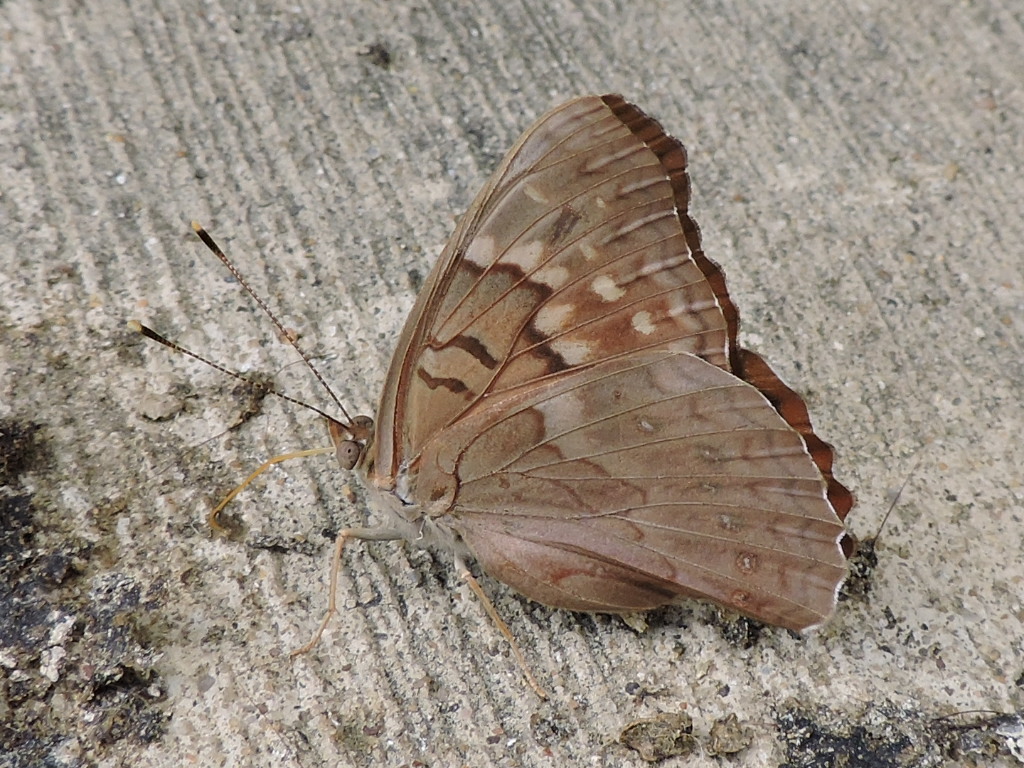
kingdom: Animalia
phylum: Arthropoda
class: Insecta
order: Lepidoptera
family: Nymphalidae
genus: Asterocampa
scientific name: Asterocampa clyton
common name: Tawny emperor
